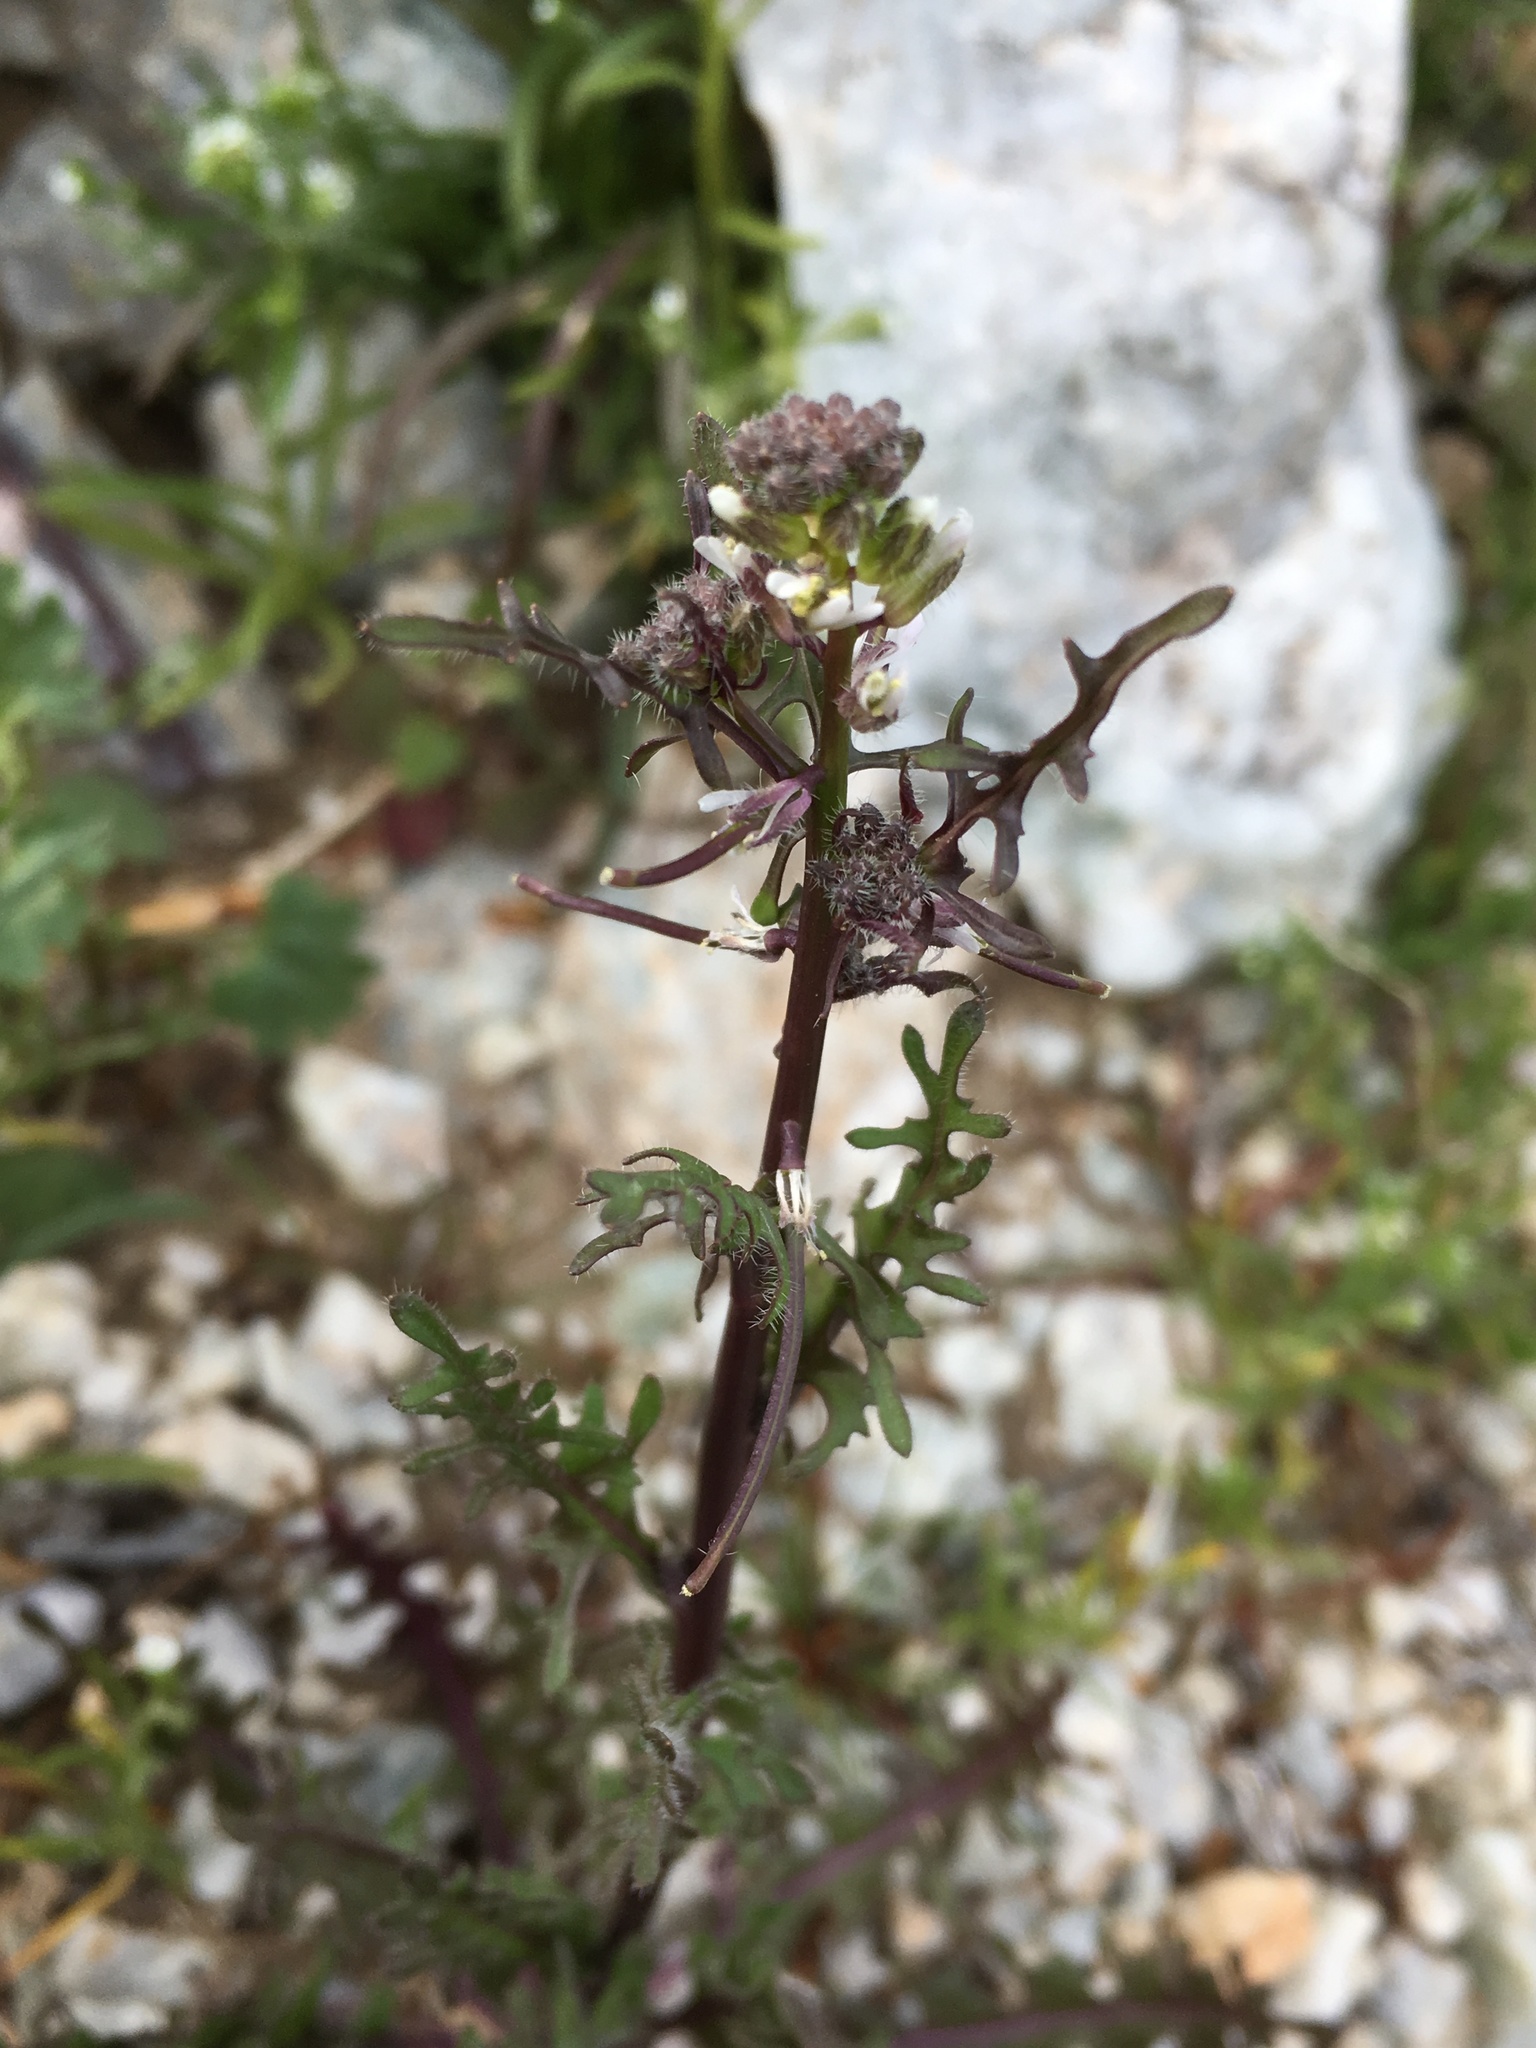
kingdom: Plantae
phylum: Tracheophyta
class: Magnoliopsida
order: Brassicales
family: Brassicaceae
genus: Streptanthus
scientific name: Streptanthus lasiophyllus
